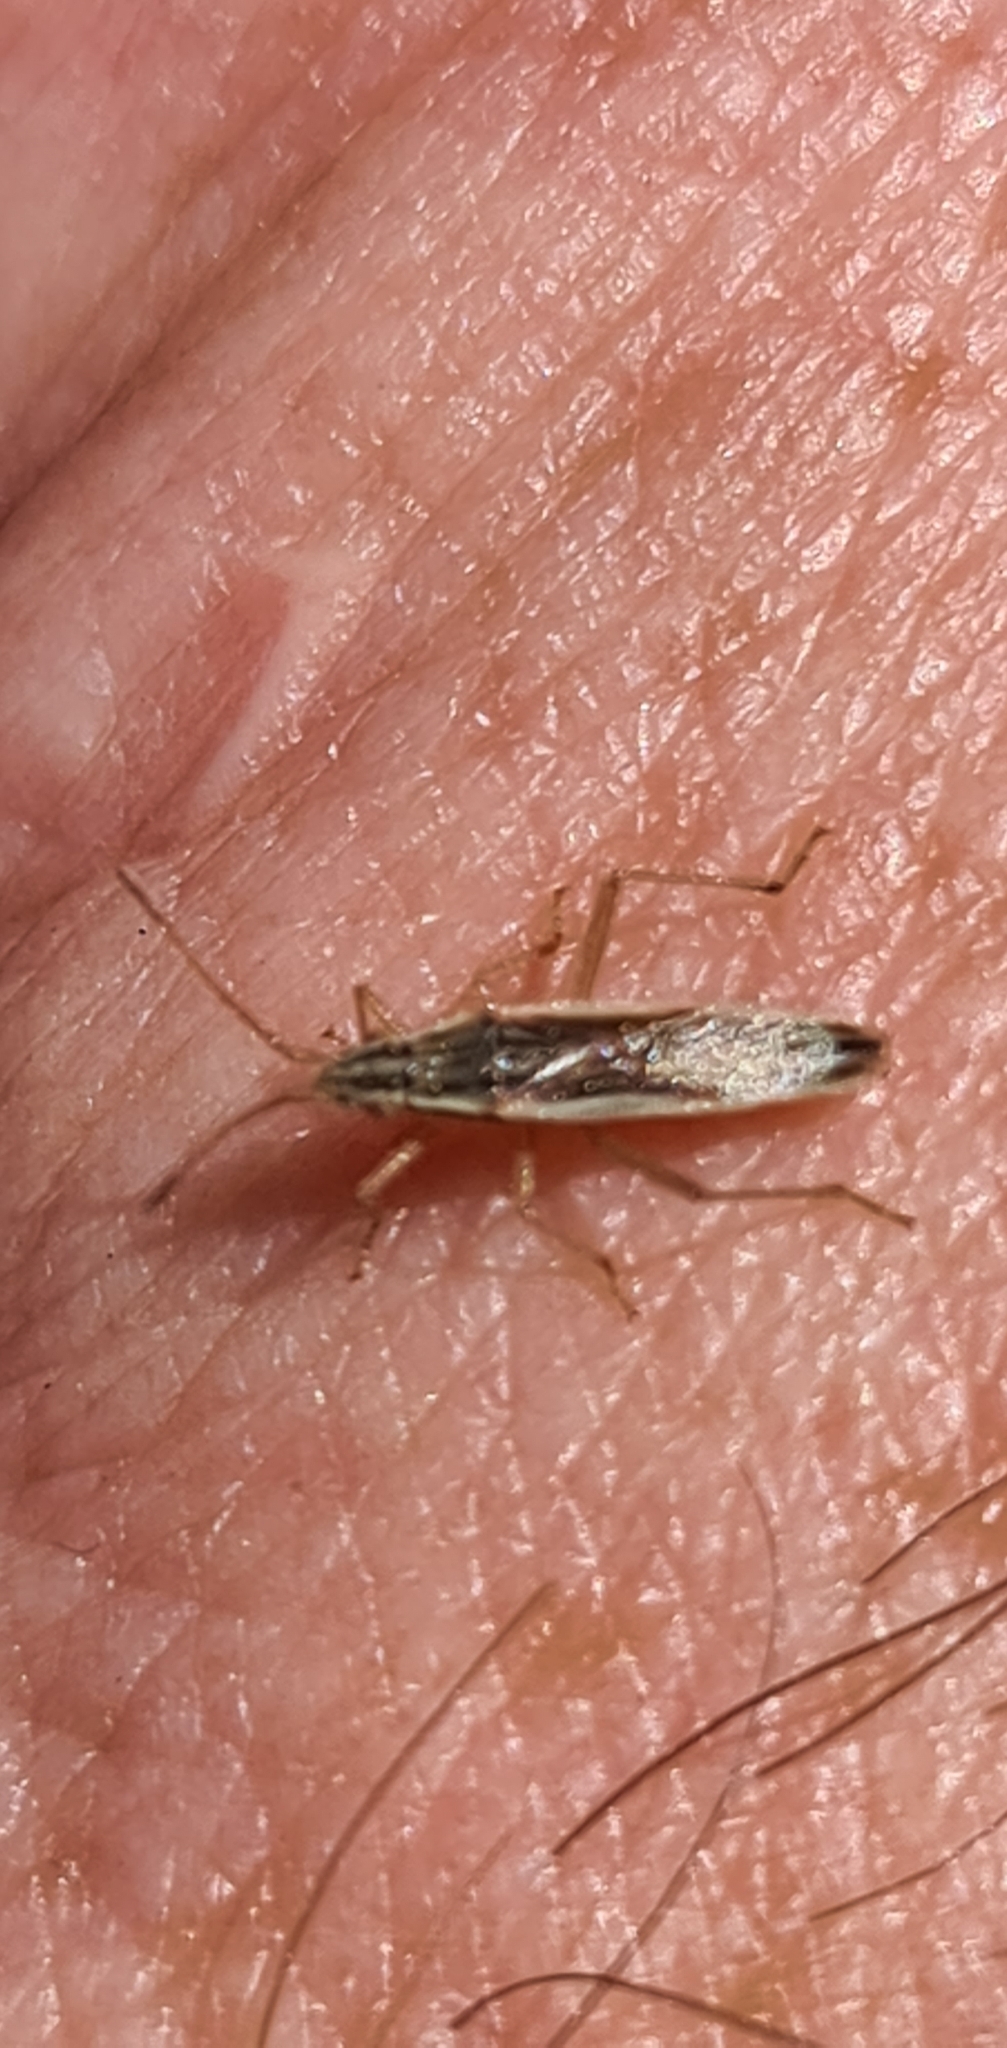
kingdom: Animalia
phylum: Arthropoda
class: Insecta
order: Hemiptera
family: Rhopalidae
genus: Myrmus
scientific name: Myrmus miriformis
